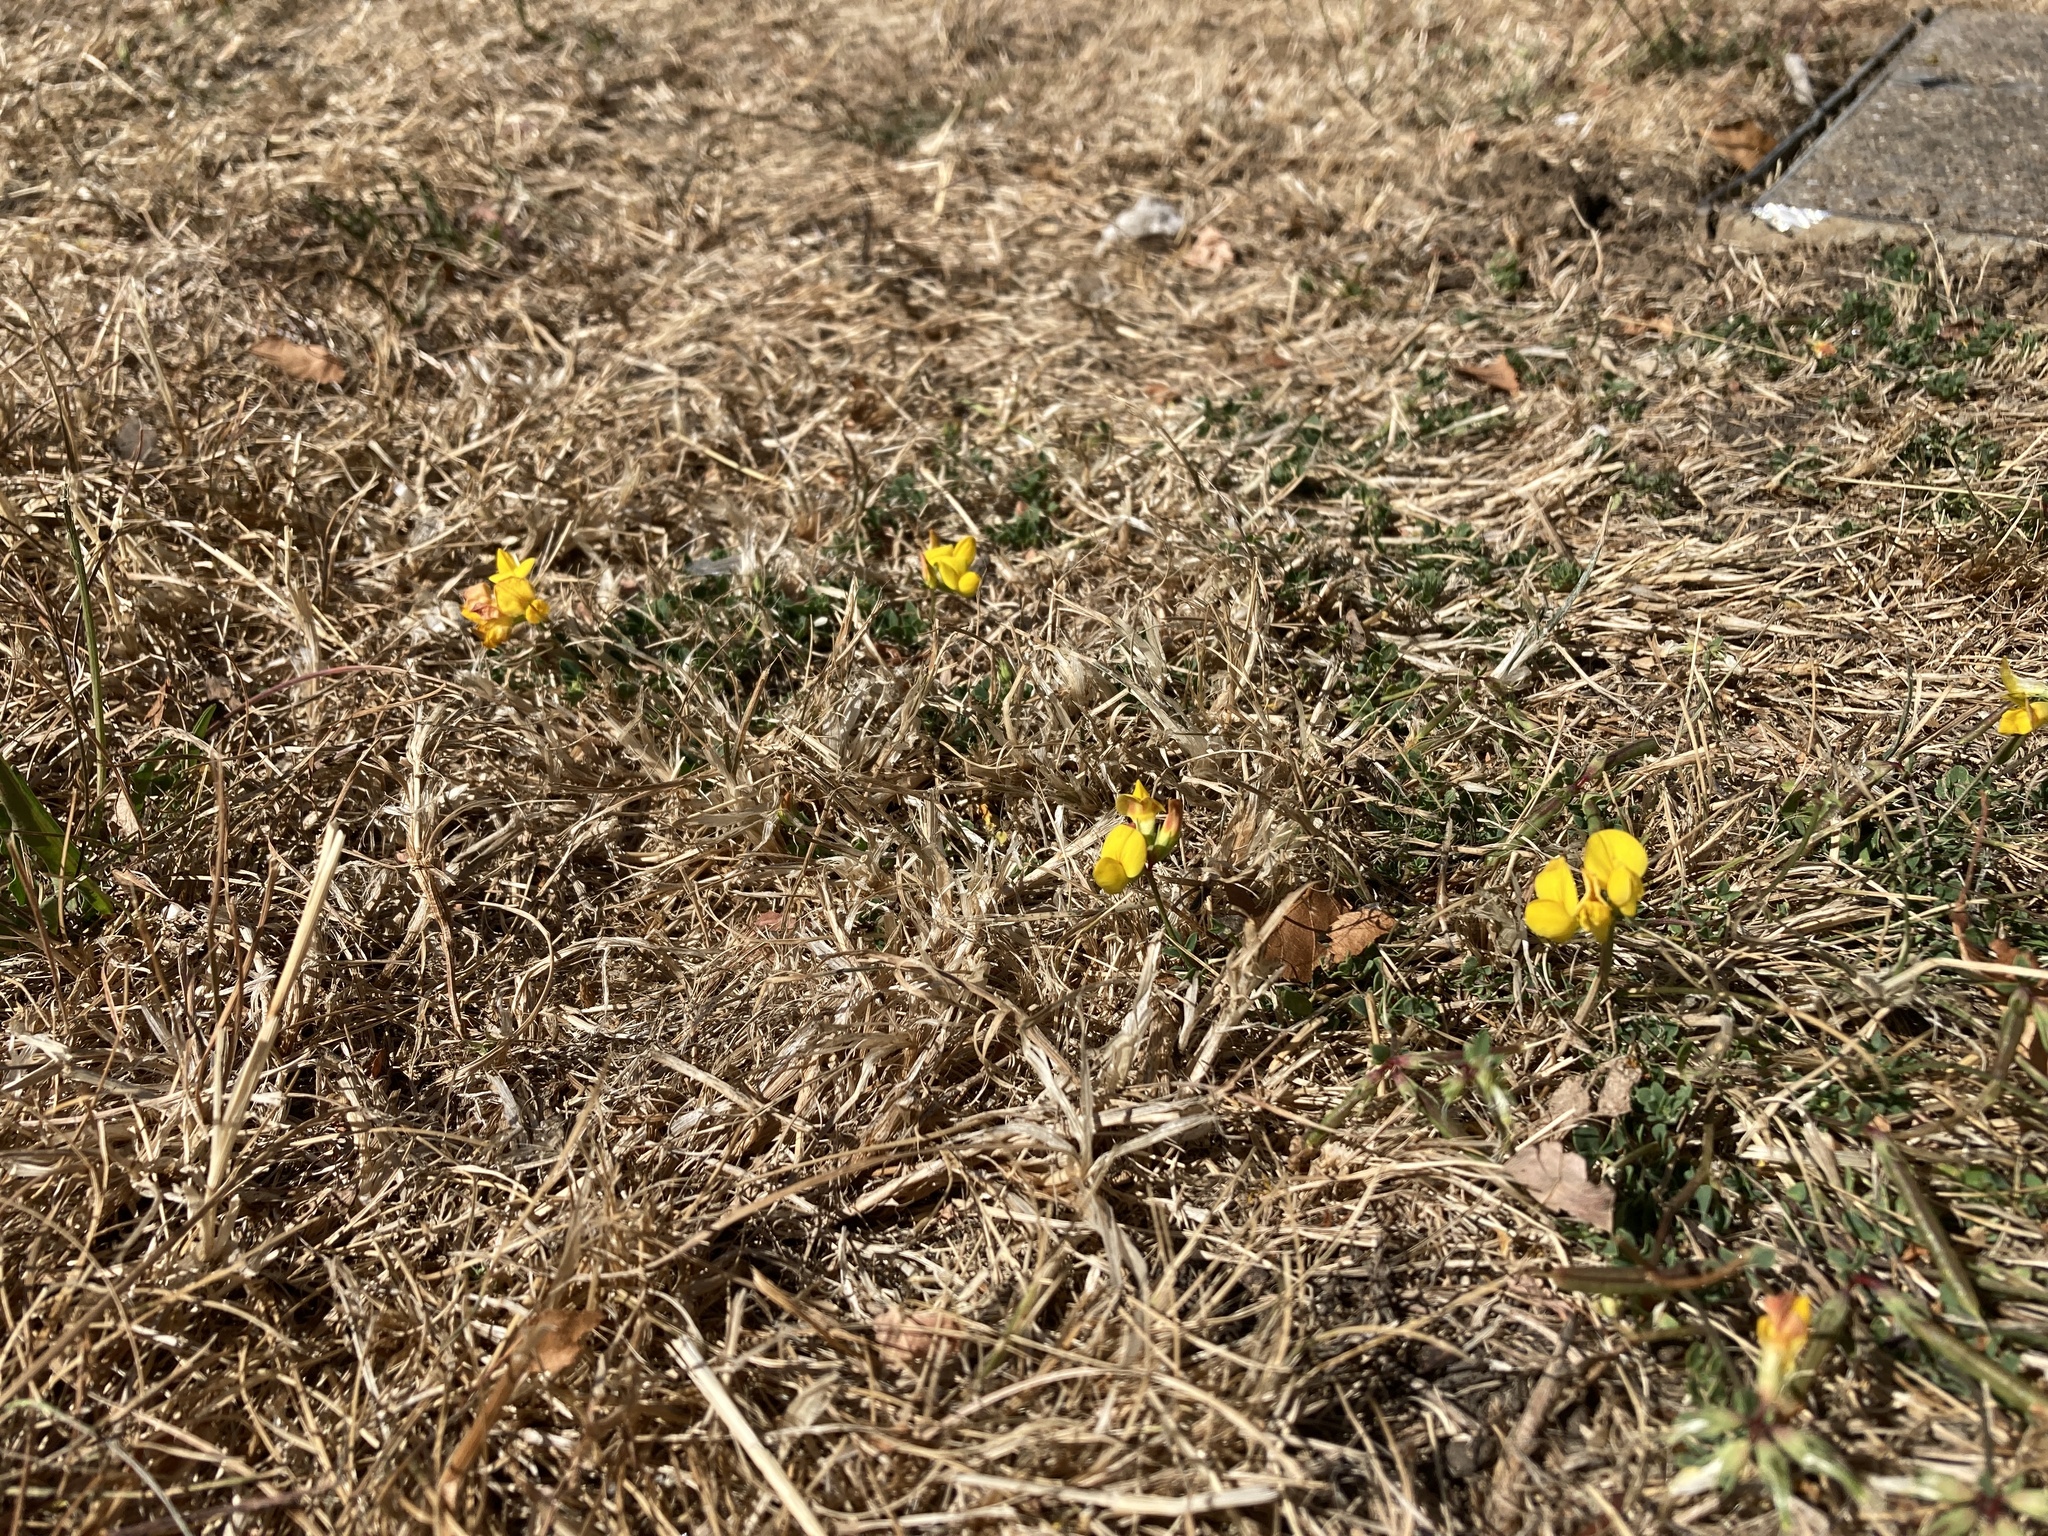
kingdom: Plantae
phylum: Tracheophyta
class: Magnoliopsida
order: Fabales
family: Fabaceae
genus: Lotus
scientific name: Lotus corniculatus
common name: Common bird's-foot-trefoil
